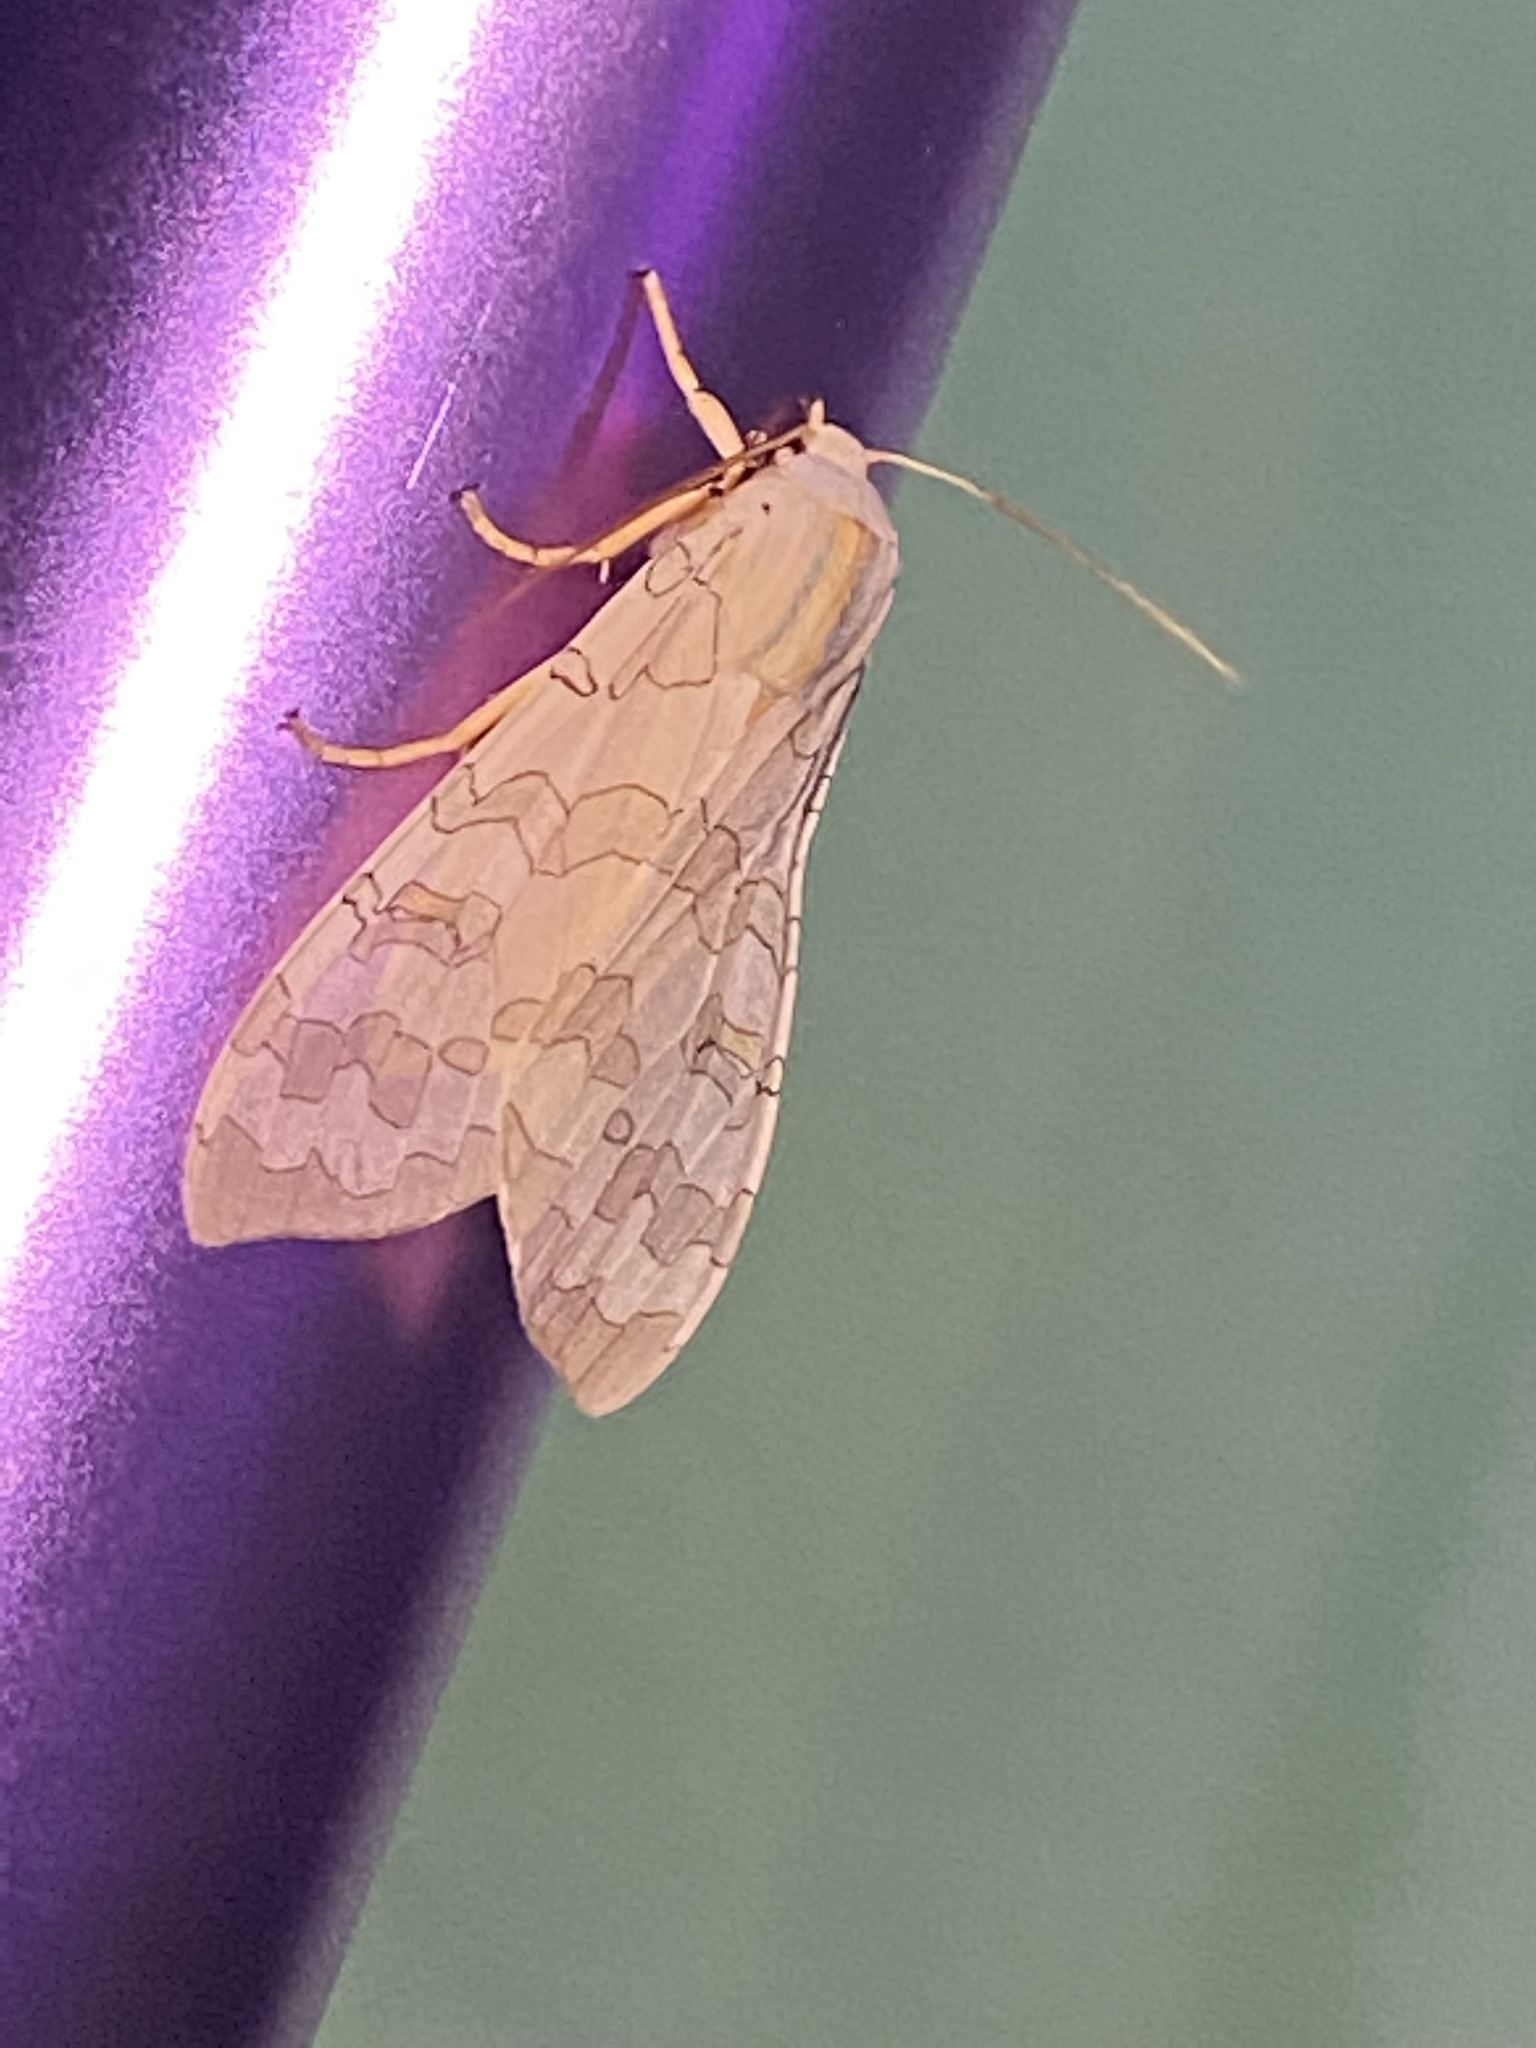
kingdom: Animalia
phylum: Arthropoda
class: Insecta
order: Lepidoptera
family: Erebidae
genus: Halysidota
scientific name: Halysidota
